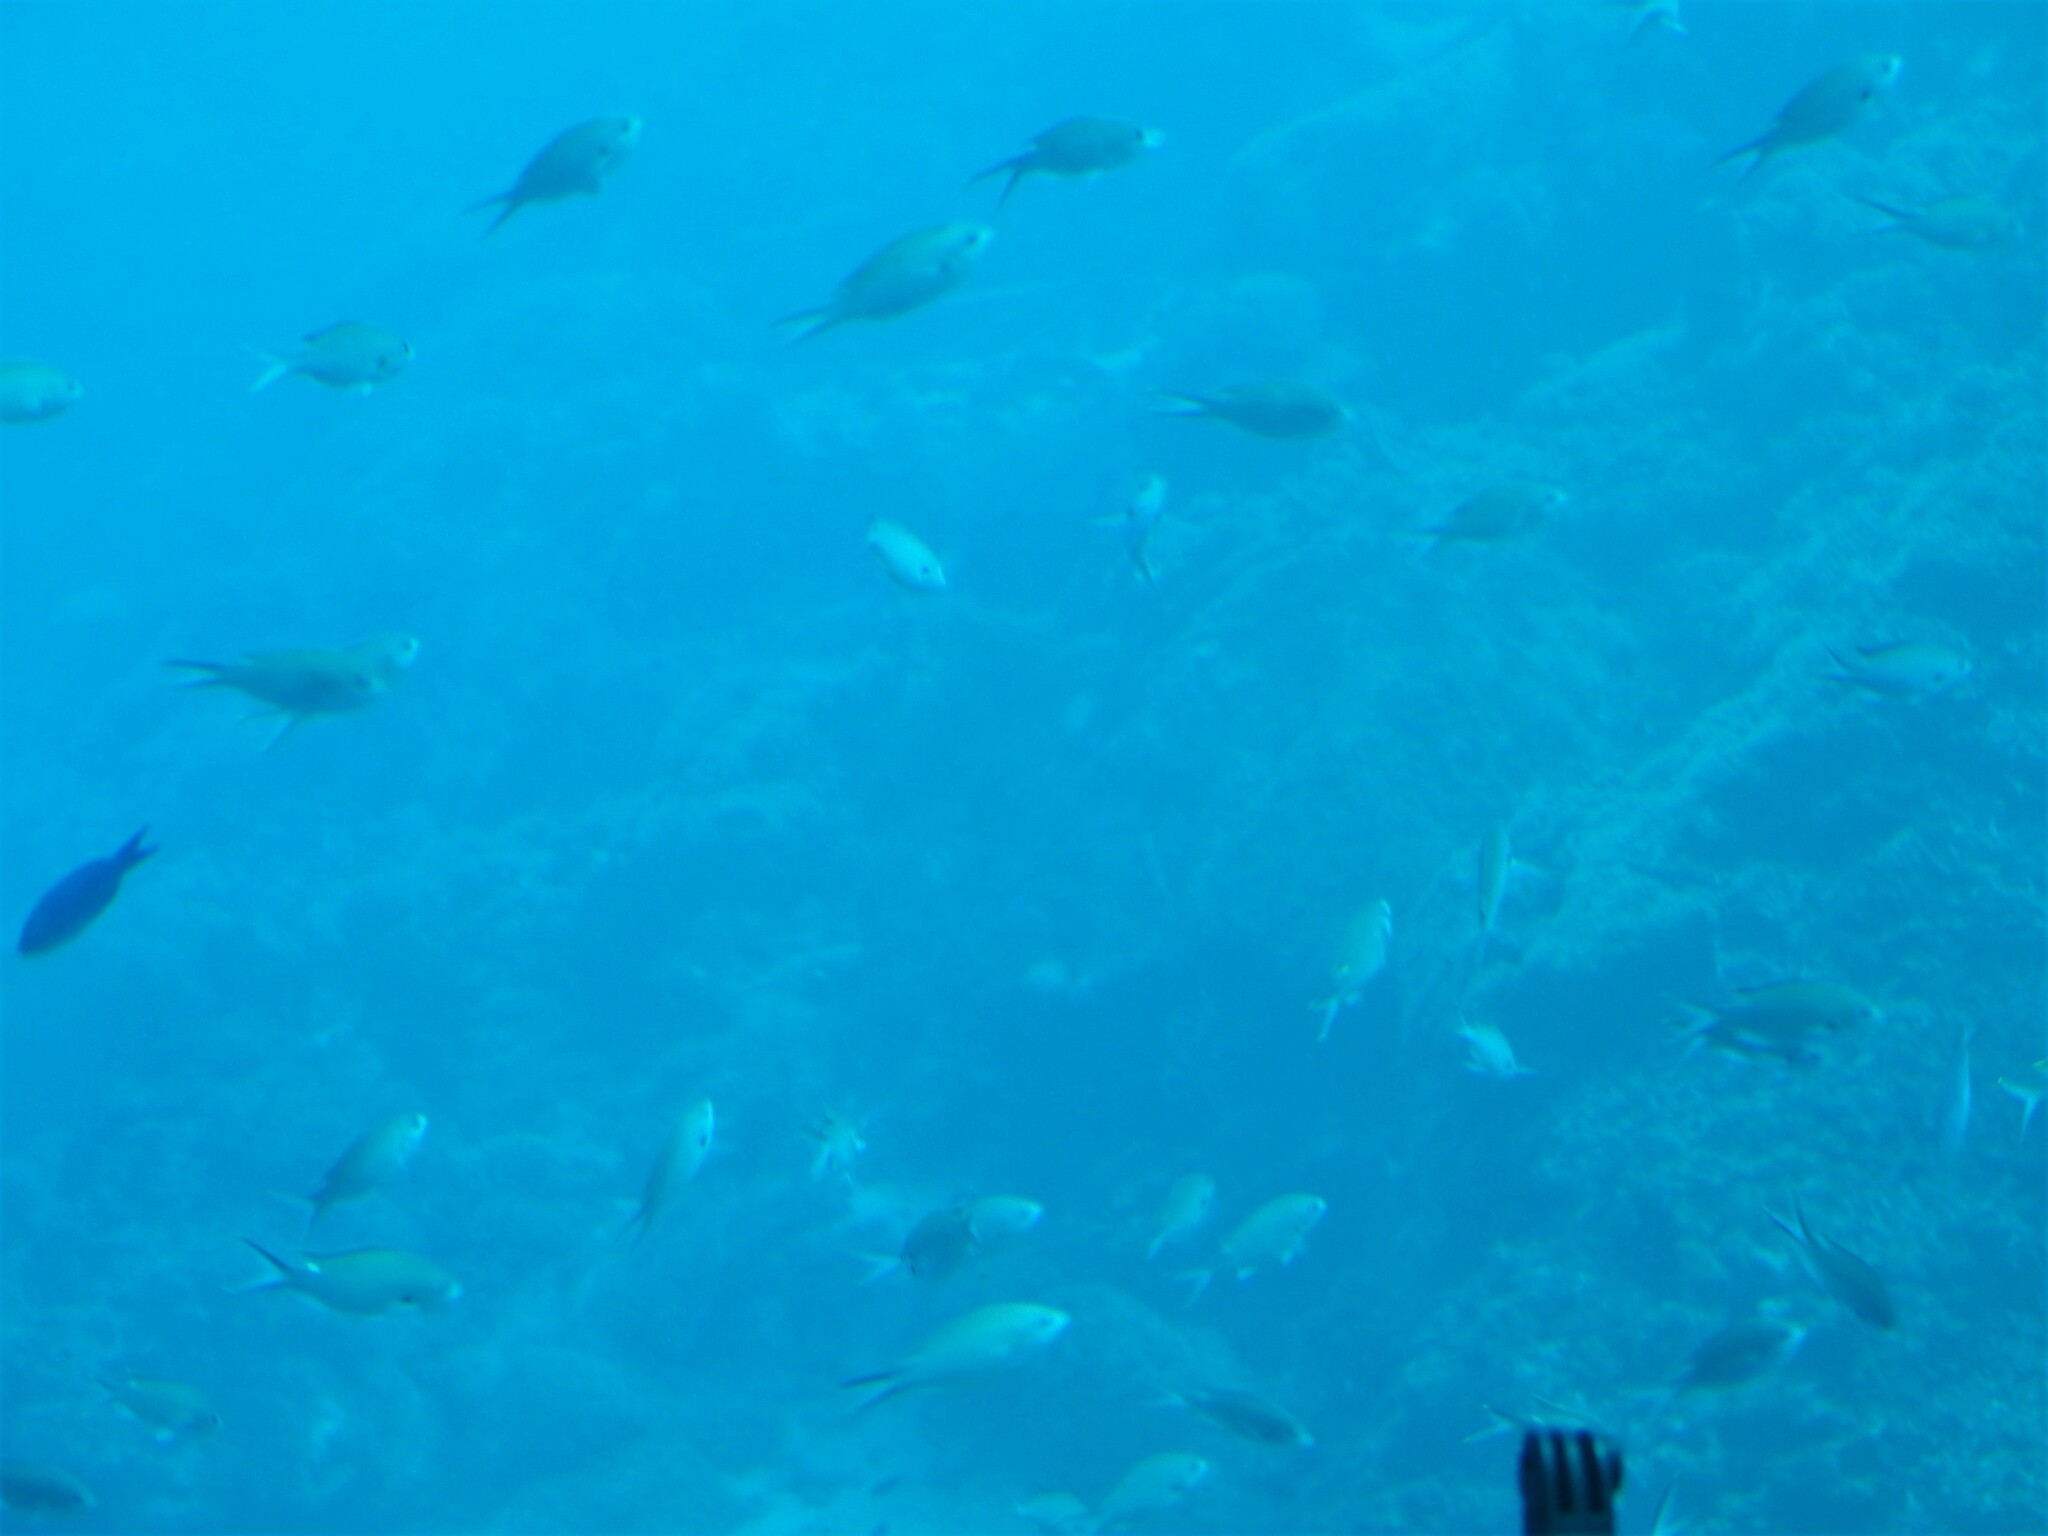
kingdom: Animalia
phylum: Chordata
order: Perciformes
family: Pomacentridae
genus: Chromis
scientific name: Chromis multilineata
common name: Brown chromis
